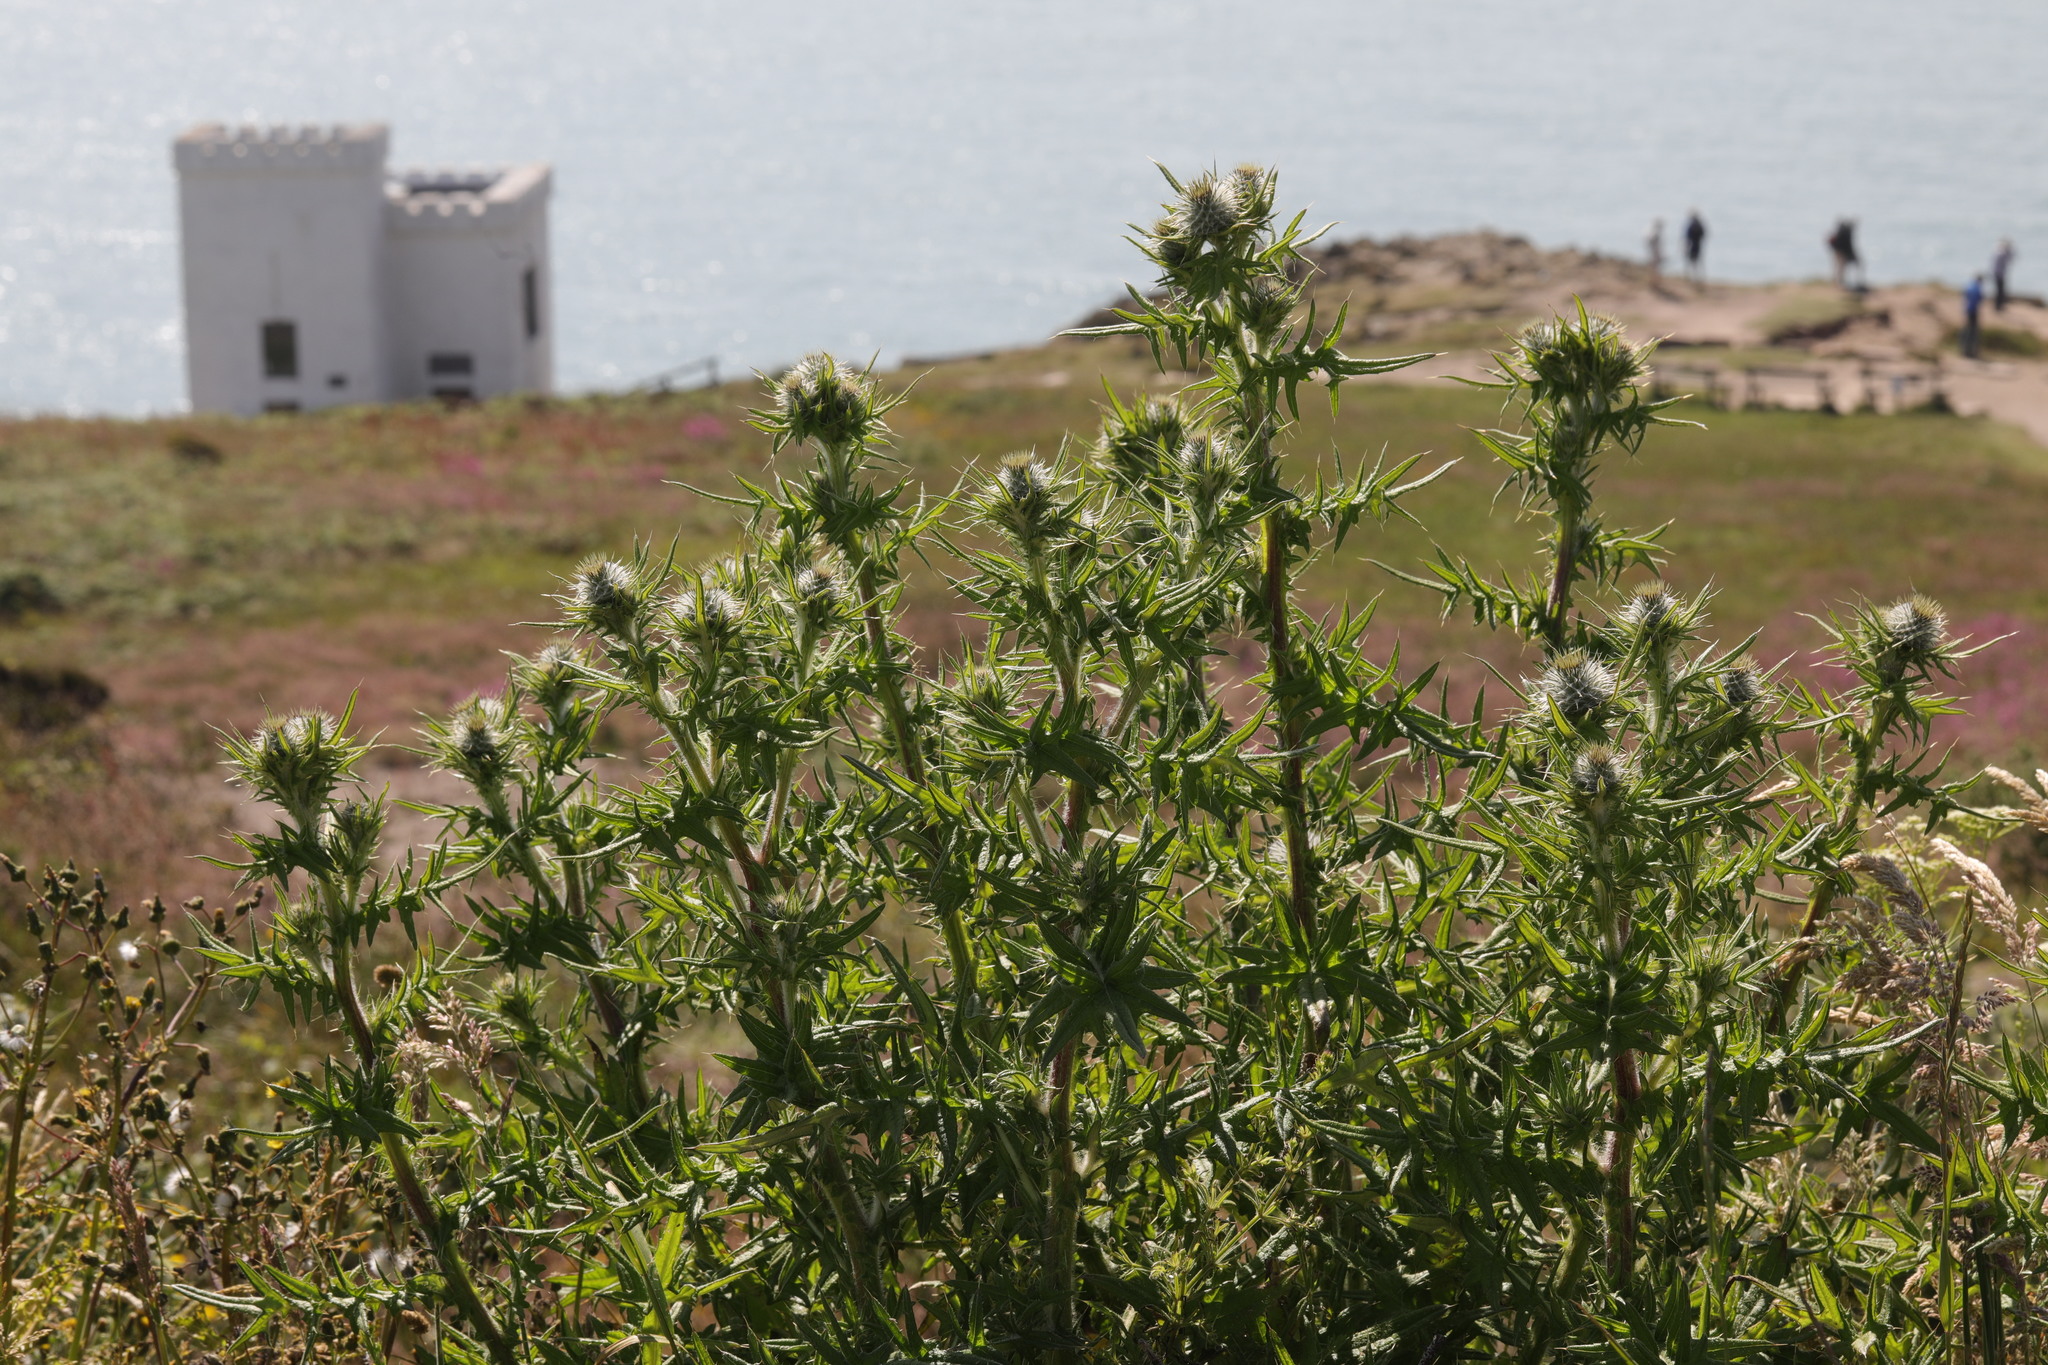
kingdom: Plantae
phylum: Tracheophyta
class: Magnoliopsida
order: Asterales
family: Asteraceae
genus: Cirsium
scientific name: Cirsium vulgare
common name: Bull thistle
